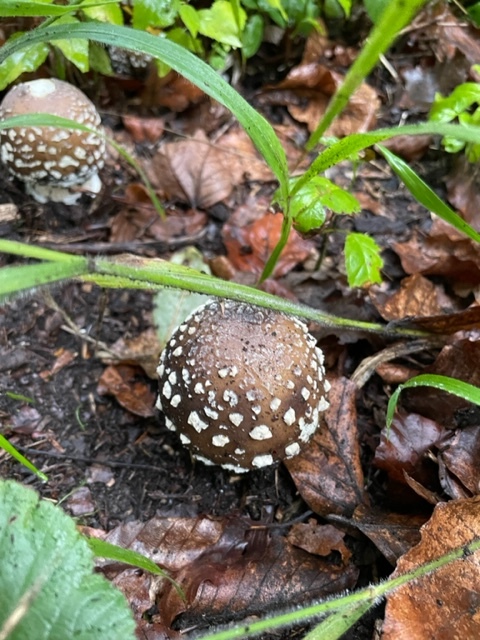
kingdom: Fungi
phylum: Basidiomycota
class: Agaricomycetes
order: Agaricales
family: Amanitaceae
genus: Amanita
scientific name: Amanita pantherina
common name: Panthercap
